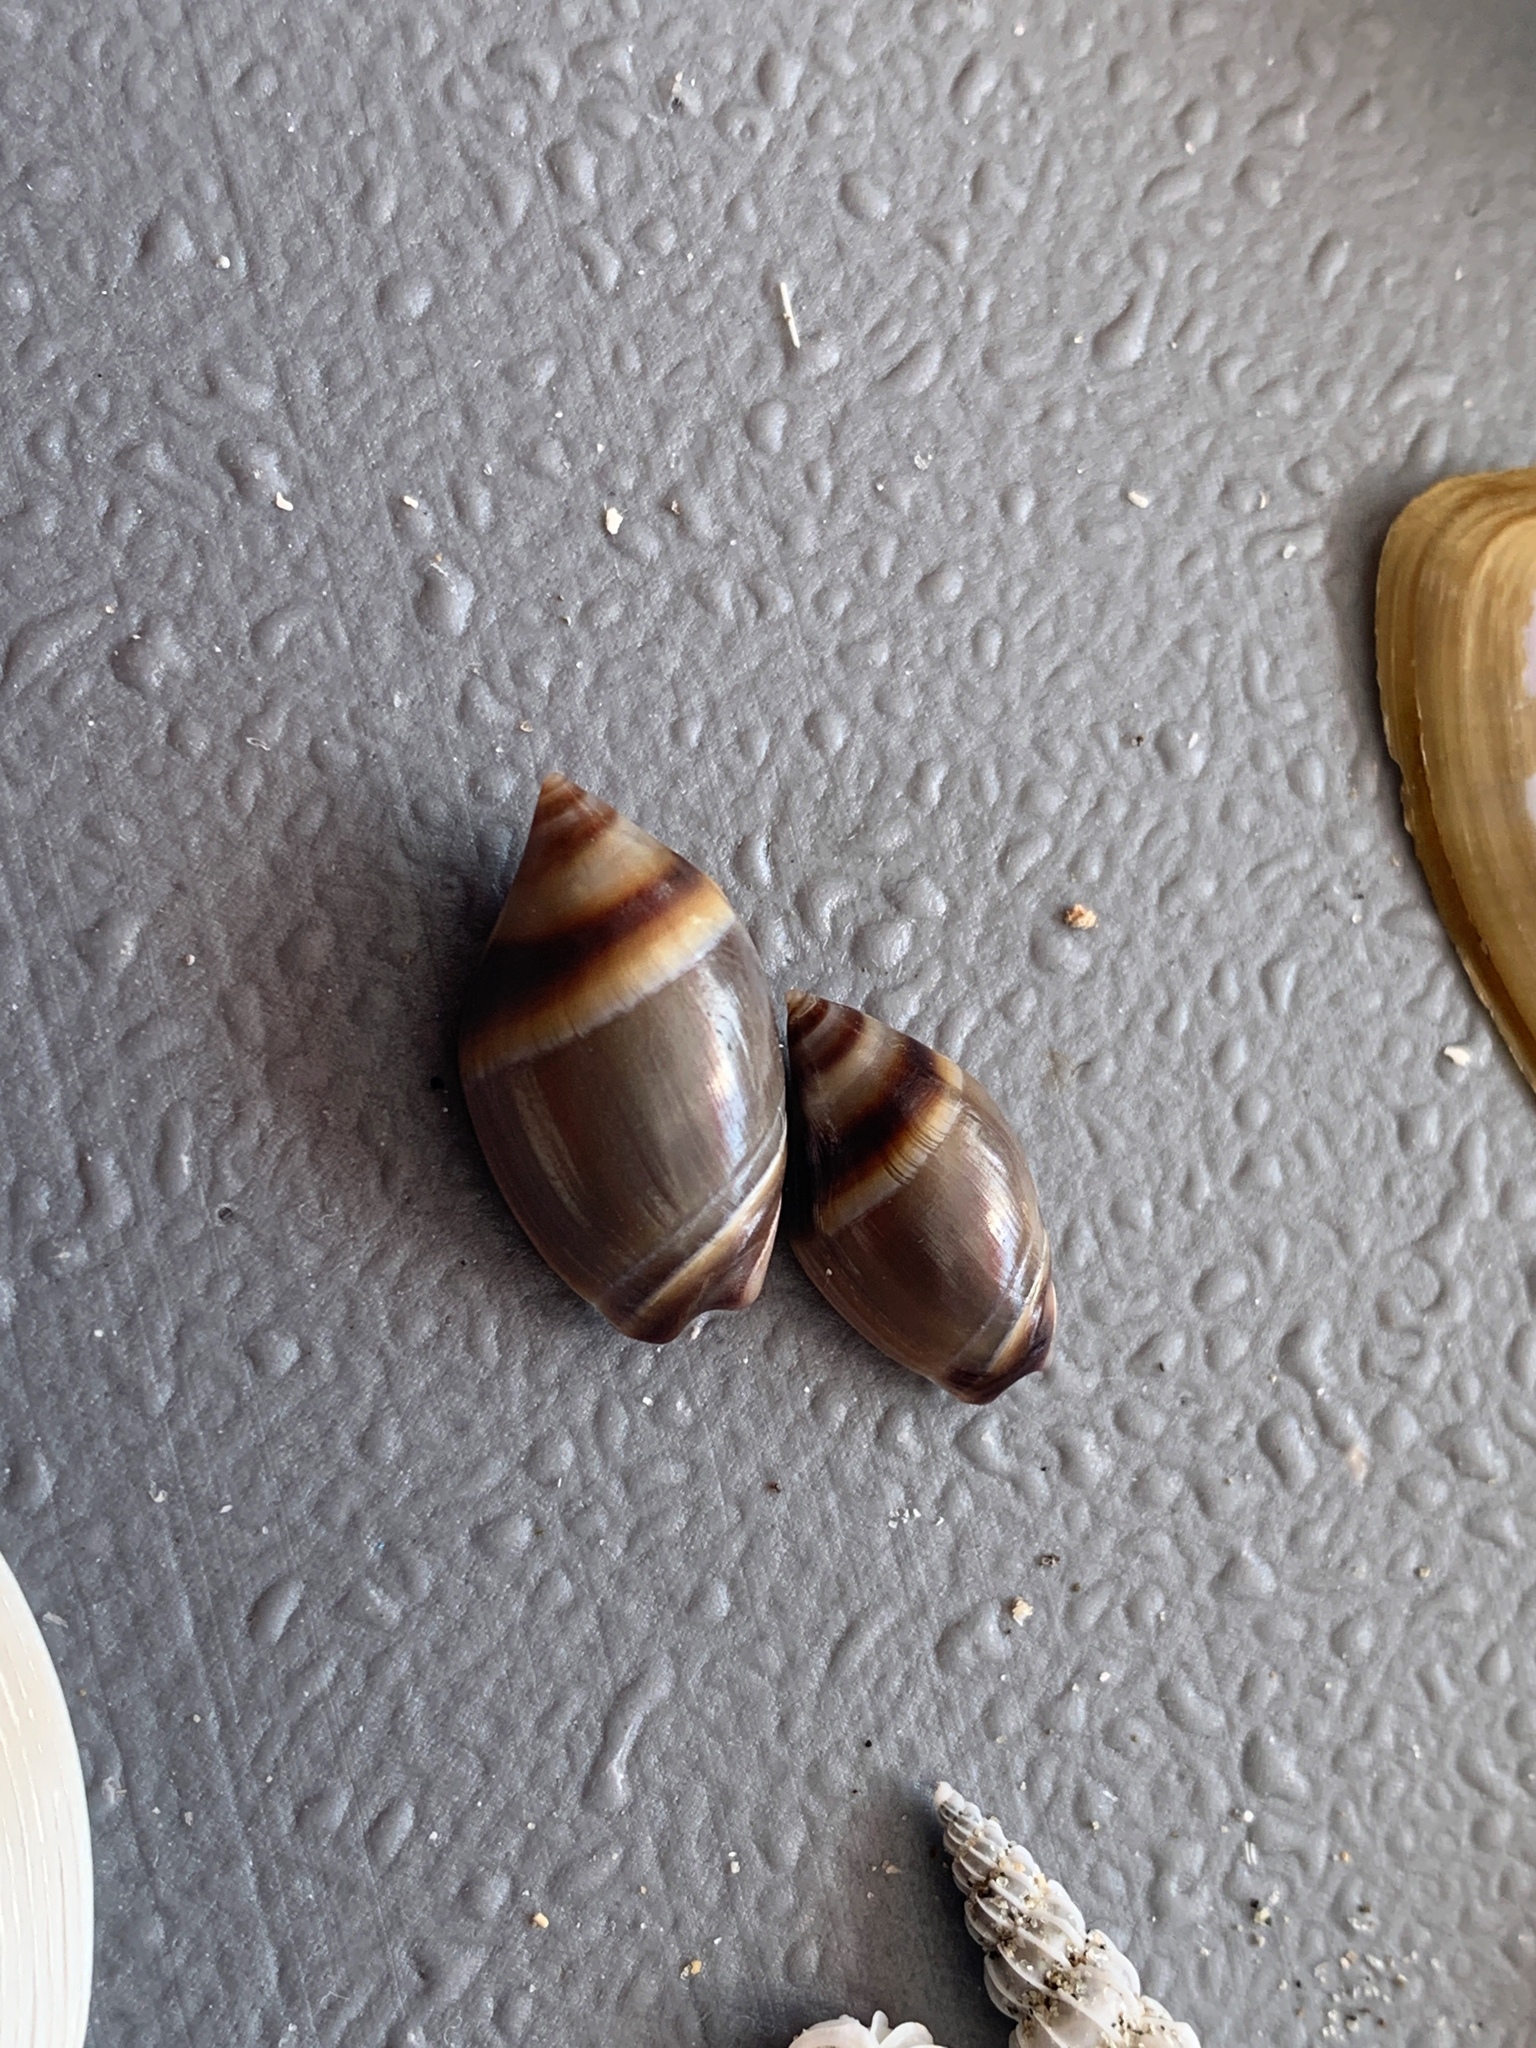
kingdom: Animalia
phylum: Mollusca
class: Gastropoda
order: Neogastropoda
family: Ancillariidae
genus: Amalda
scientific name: Amalda depressa
